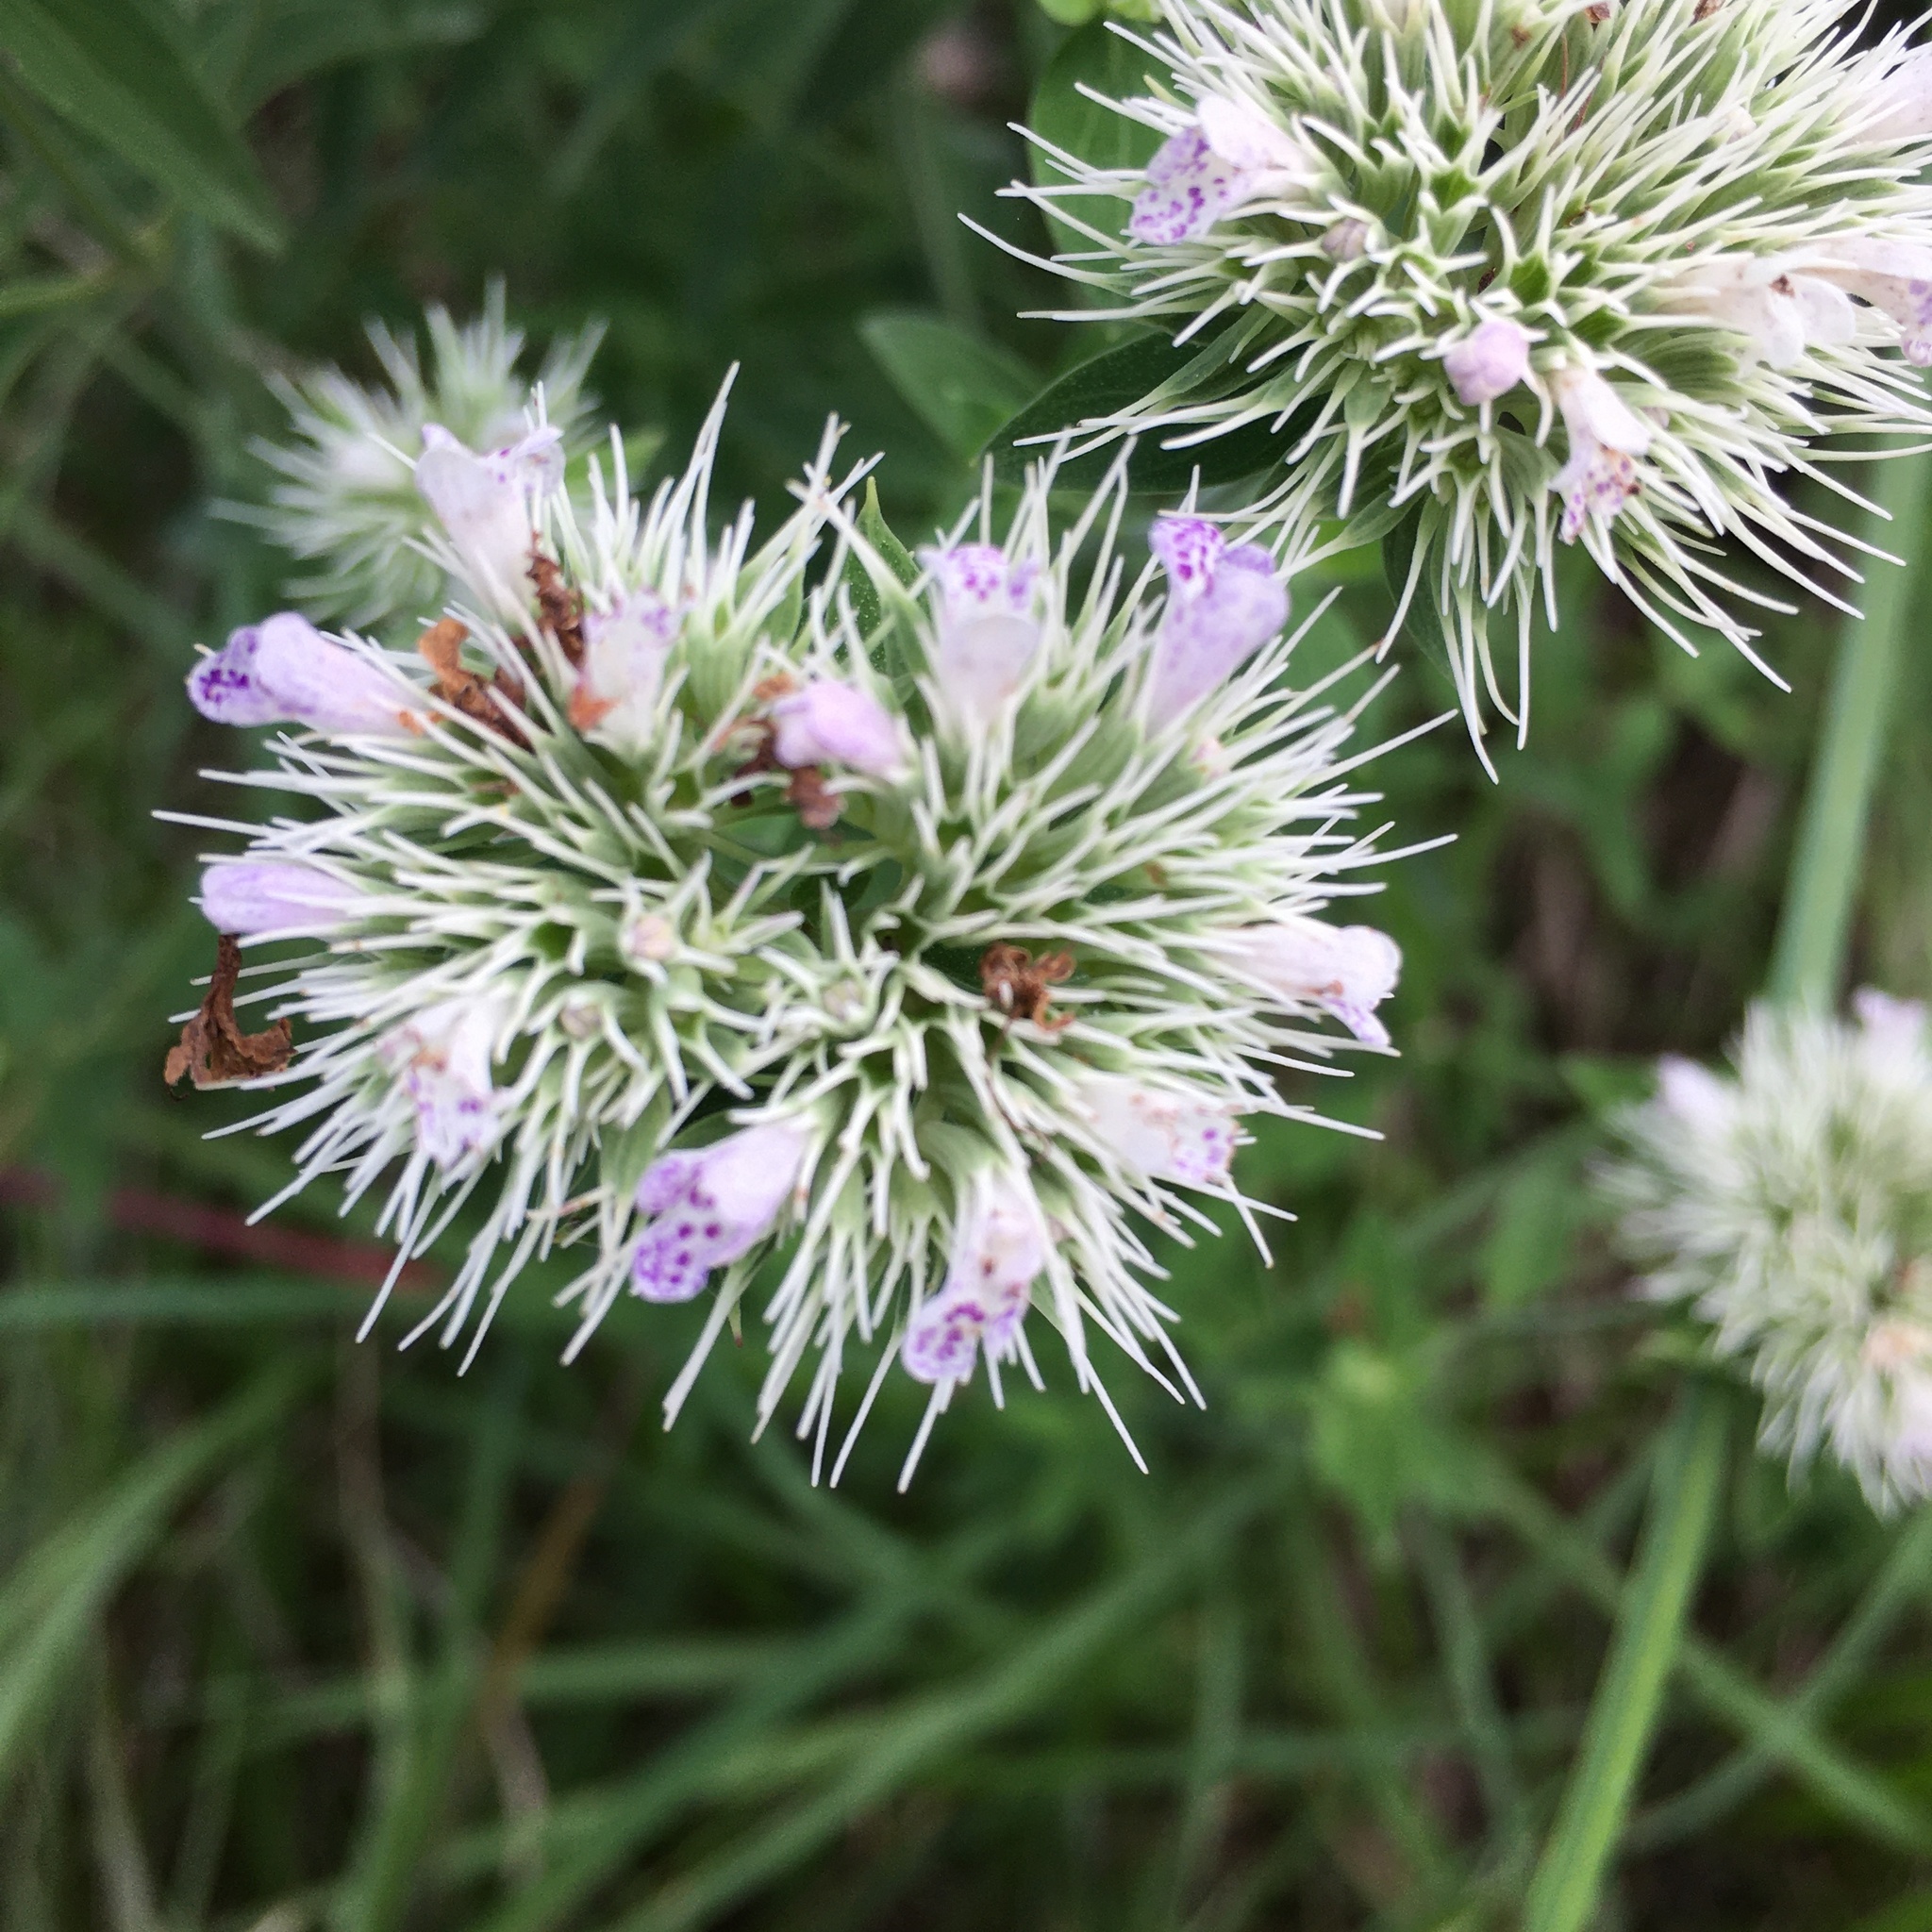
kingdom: Plantae
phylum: Tracheophyta
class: Magnoliopsida
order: Lamiales
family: Lamiaceae
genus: Pycnanthemum
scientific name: Pycnanthemum flexuosum
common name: Appalachian mountain-mint
